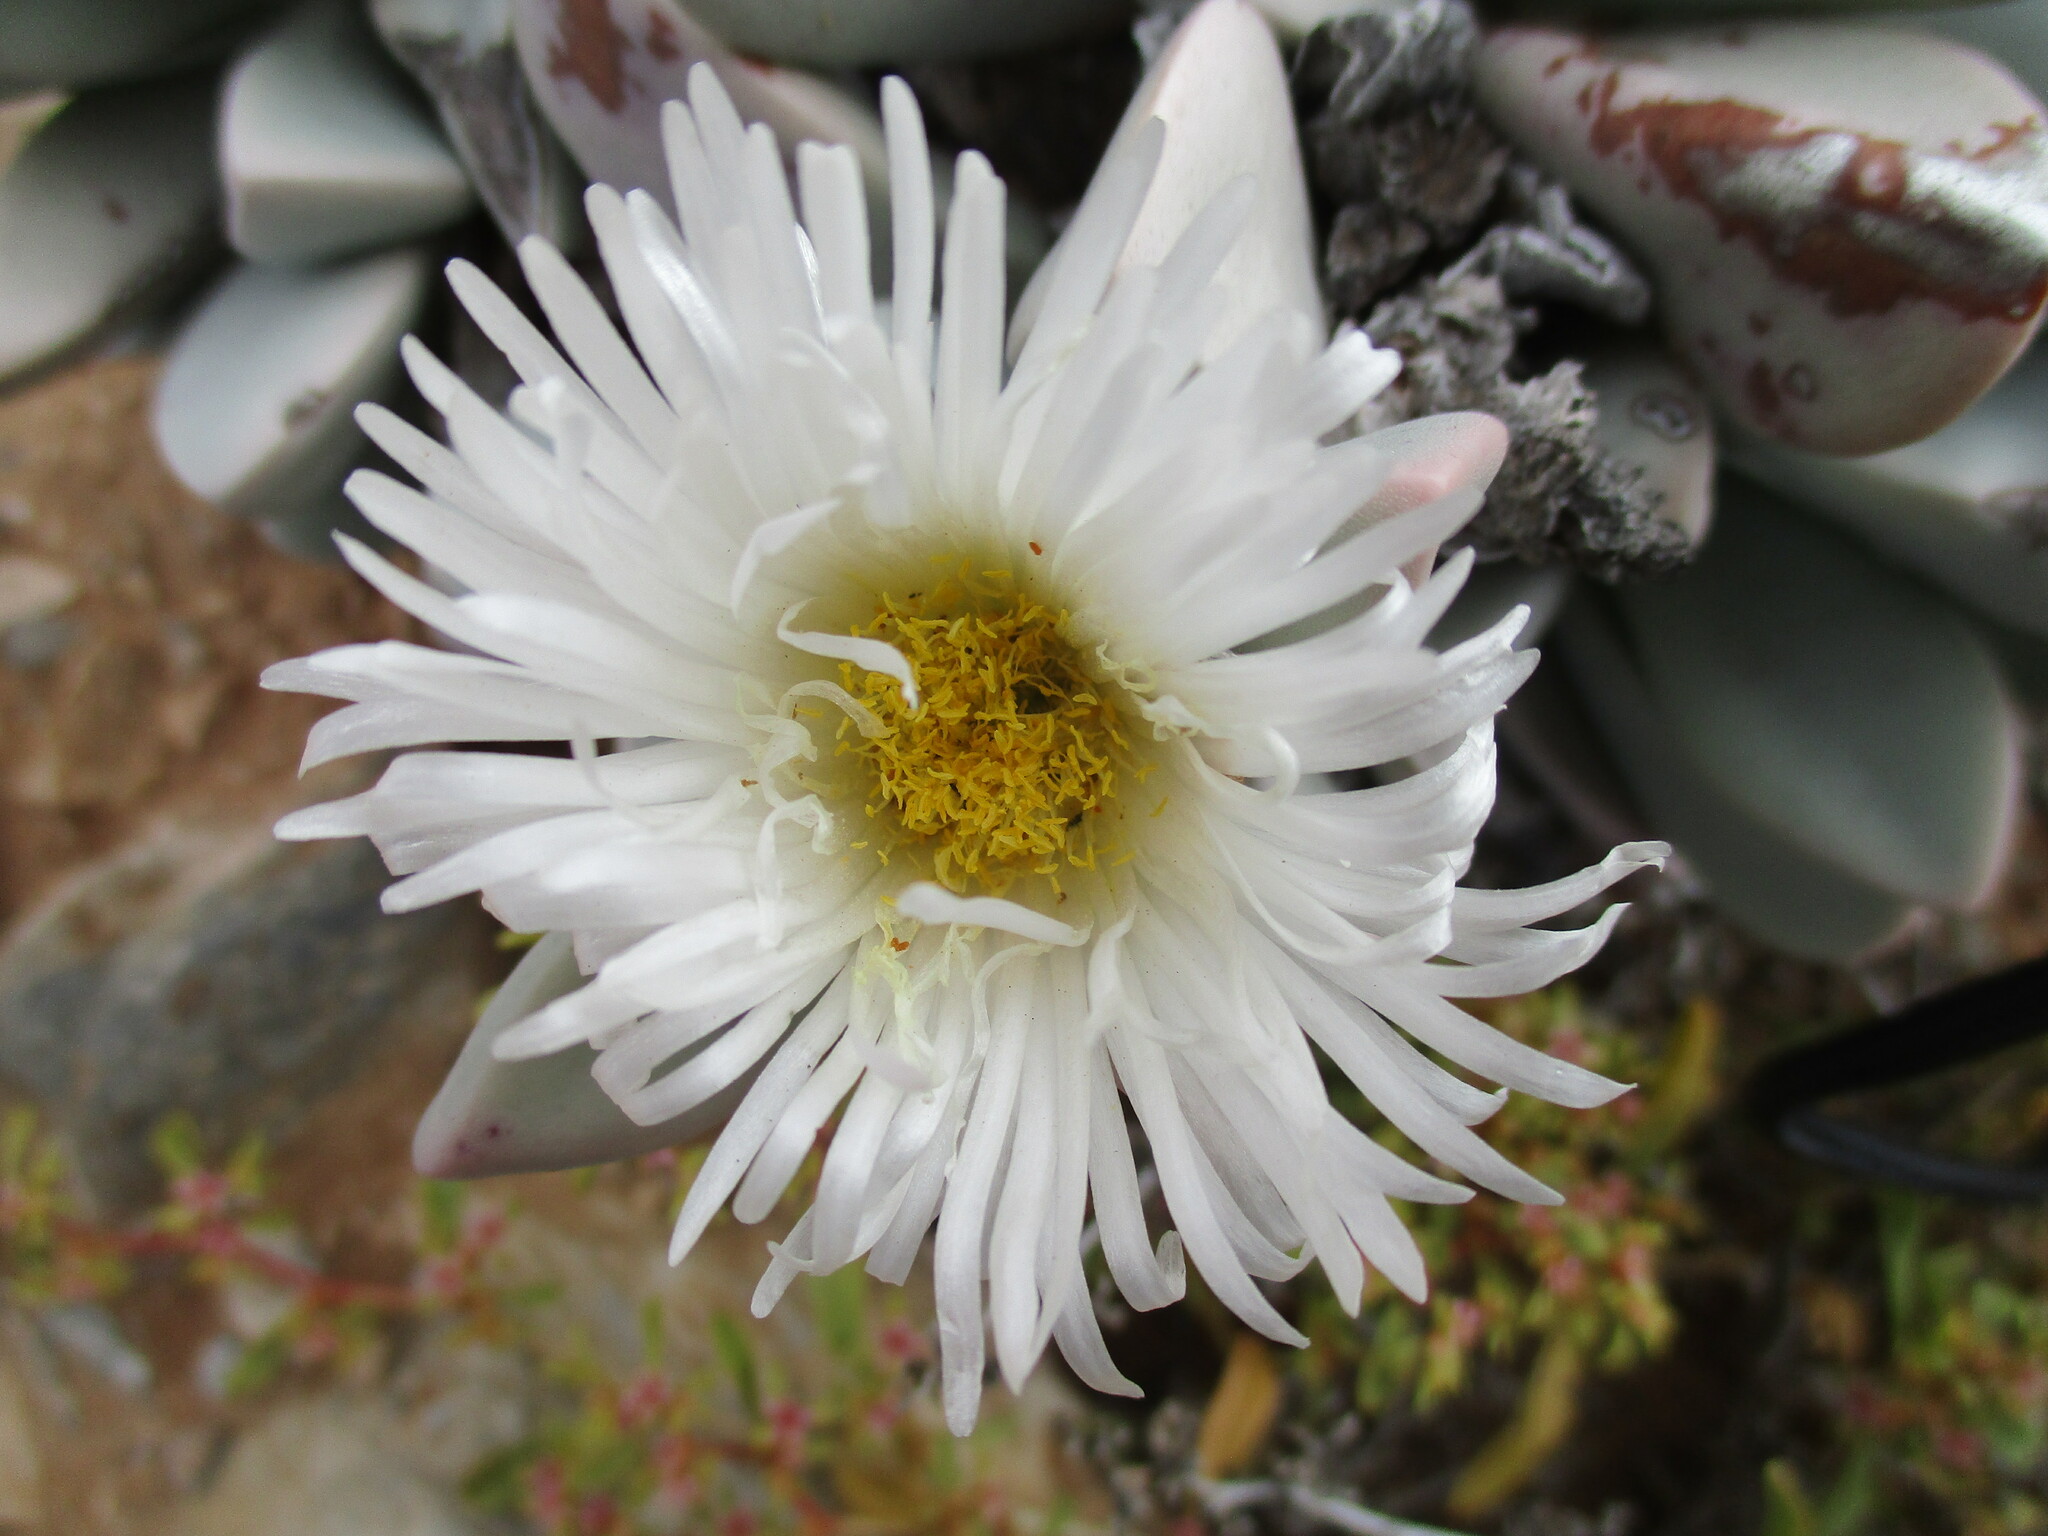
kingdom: Plantae
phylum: Tracheophyta
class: Magnoliopsida
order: Caryophyllales
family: Aizoaceae
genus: Hartmanthus
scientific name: Hartmanthus hallii
